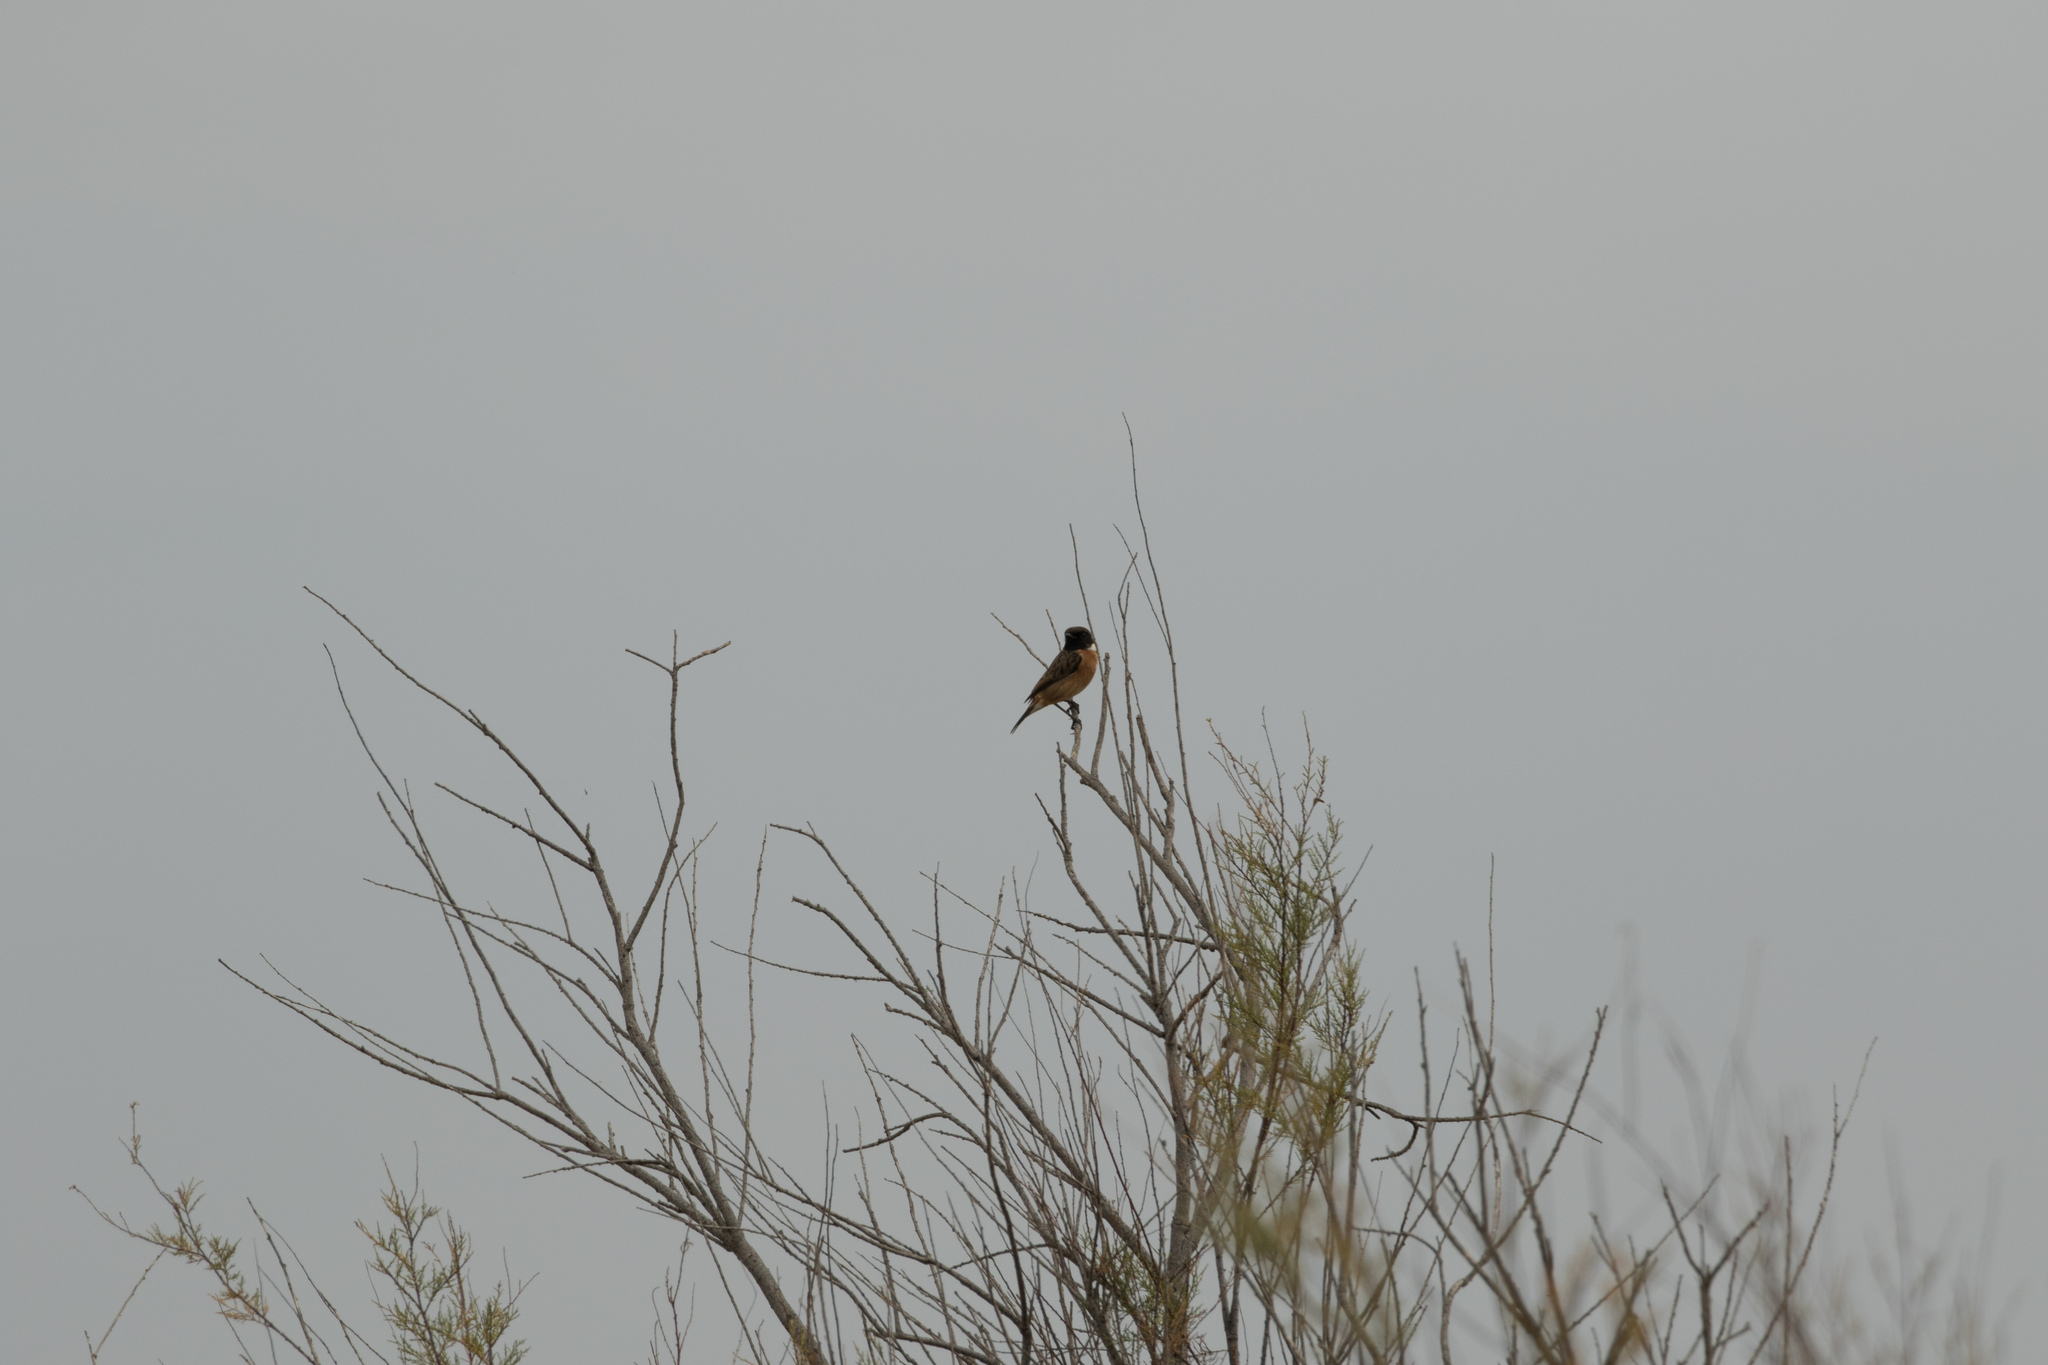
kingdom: Animalia
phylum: Chordata
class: Aves
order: Passeriformes
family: Muscicapidae
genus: Saxicola
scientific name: Saxicola rubicola
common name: European stonechat
